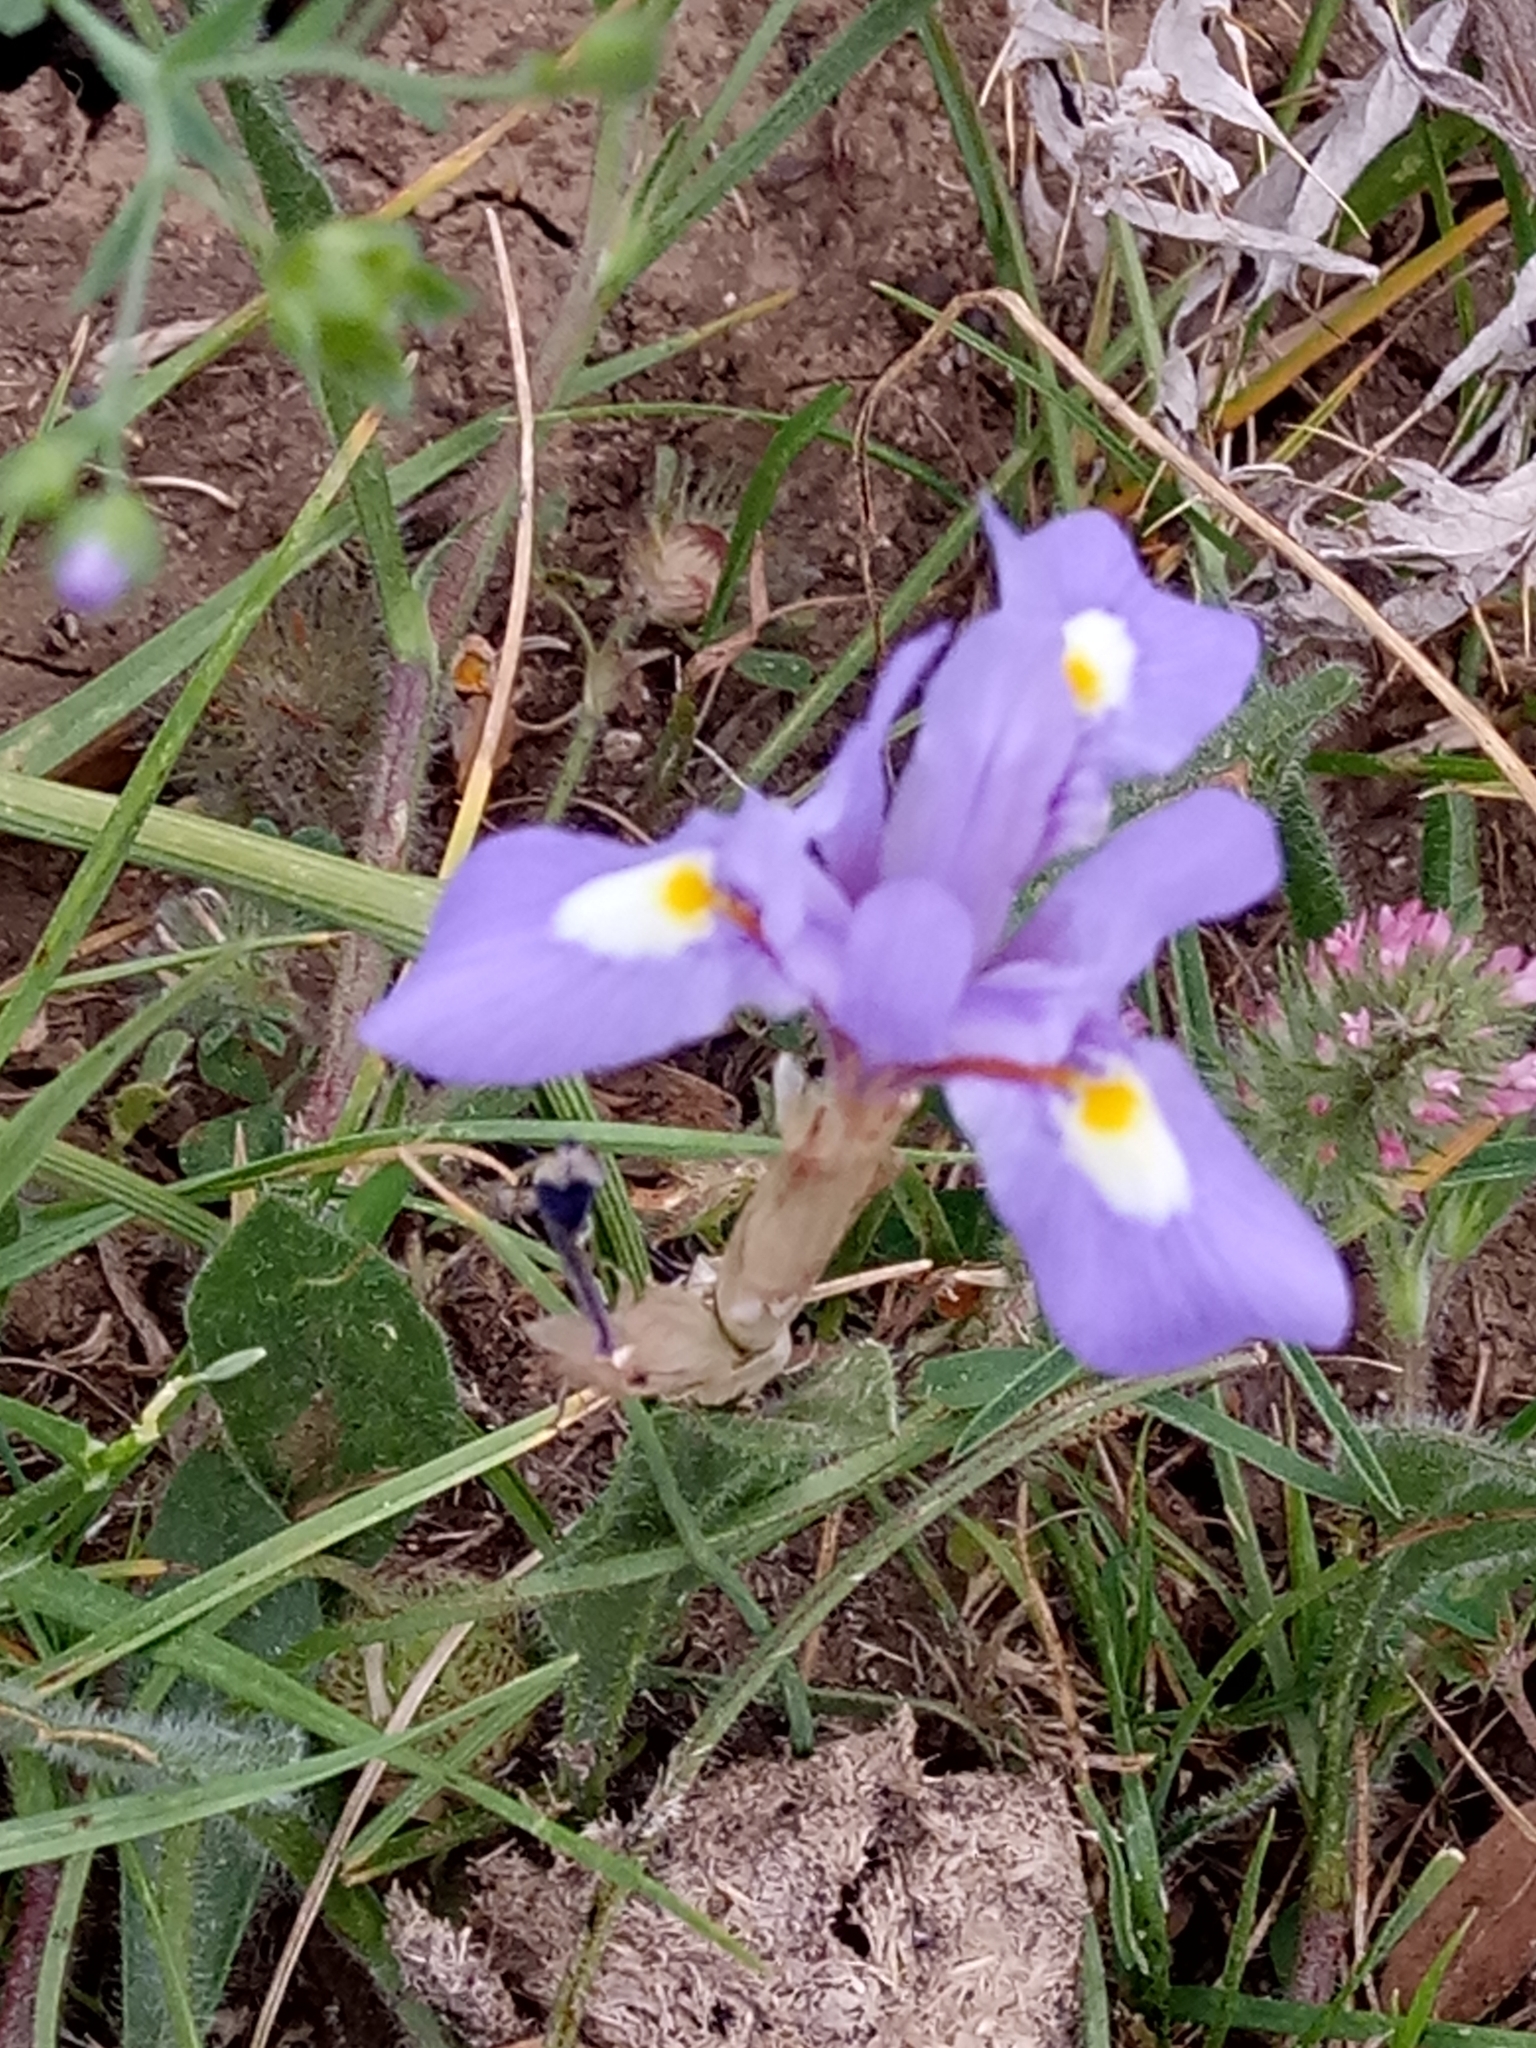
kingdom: Plantae
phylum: Tracheophyta
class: Liliopsida
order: Asparagales
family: Iridaceae
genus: Moraea
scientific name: Moraea sisyrinchium
